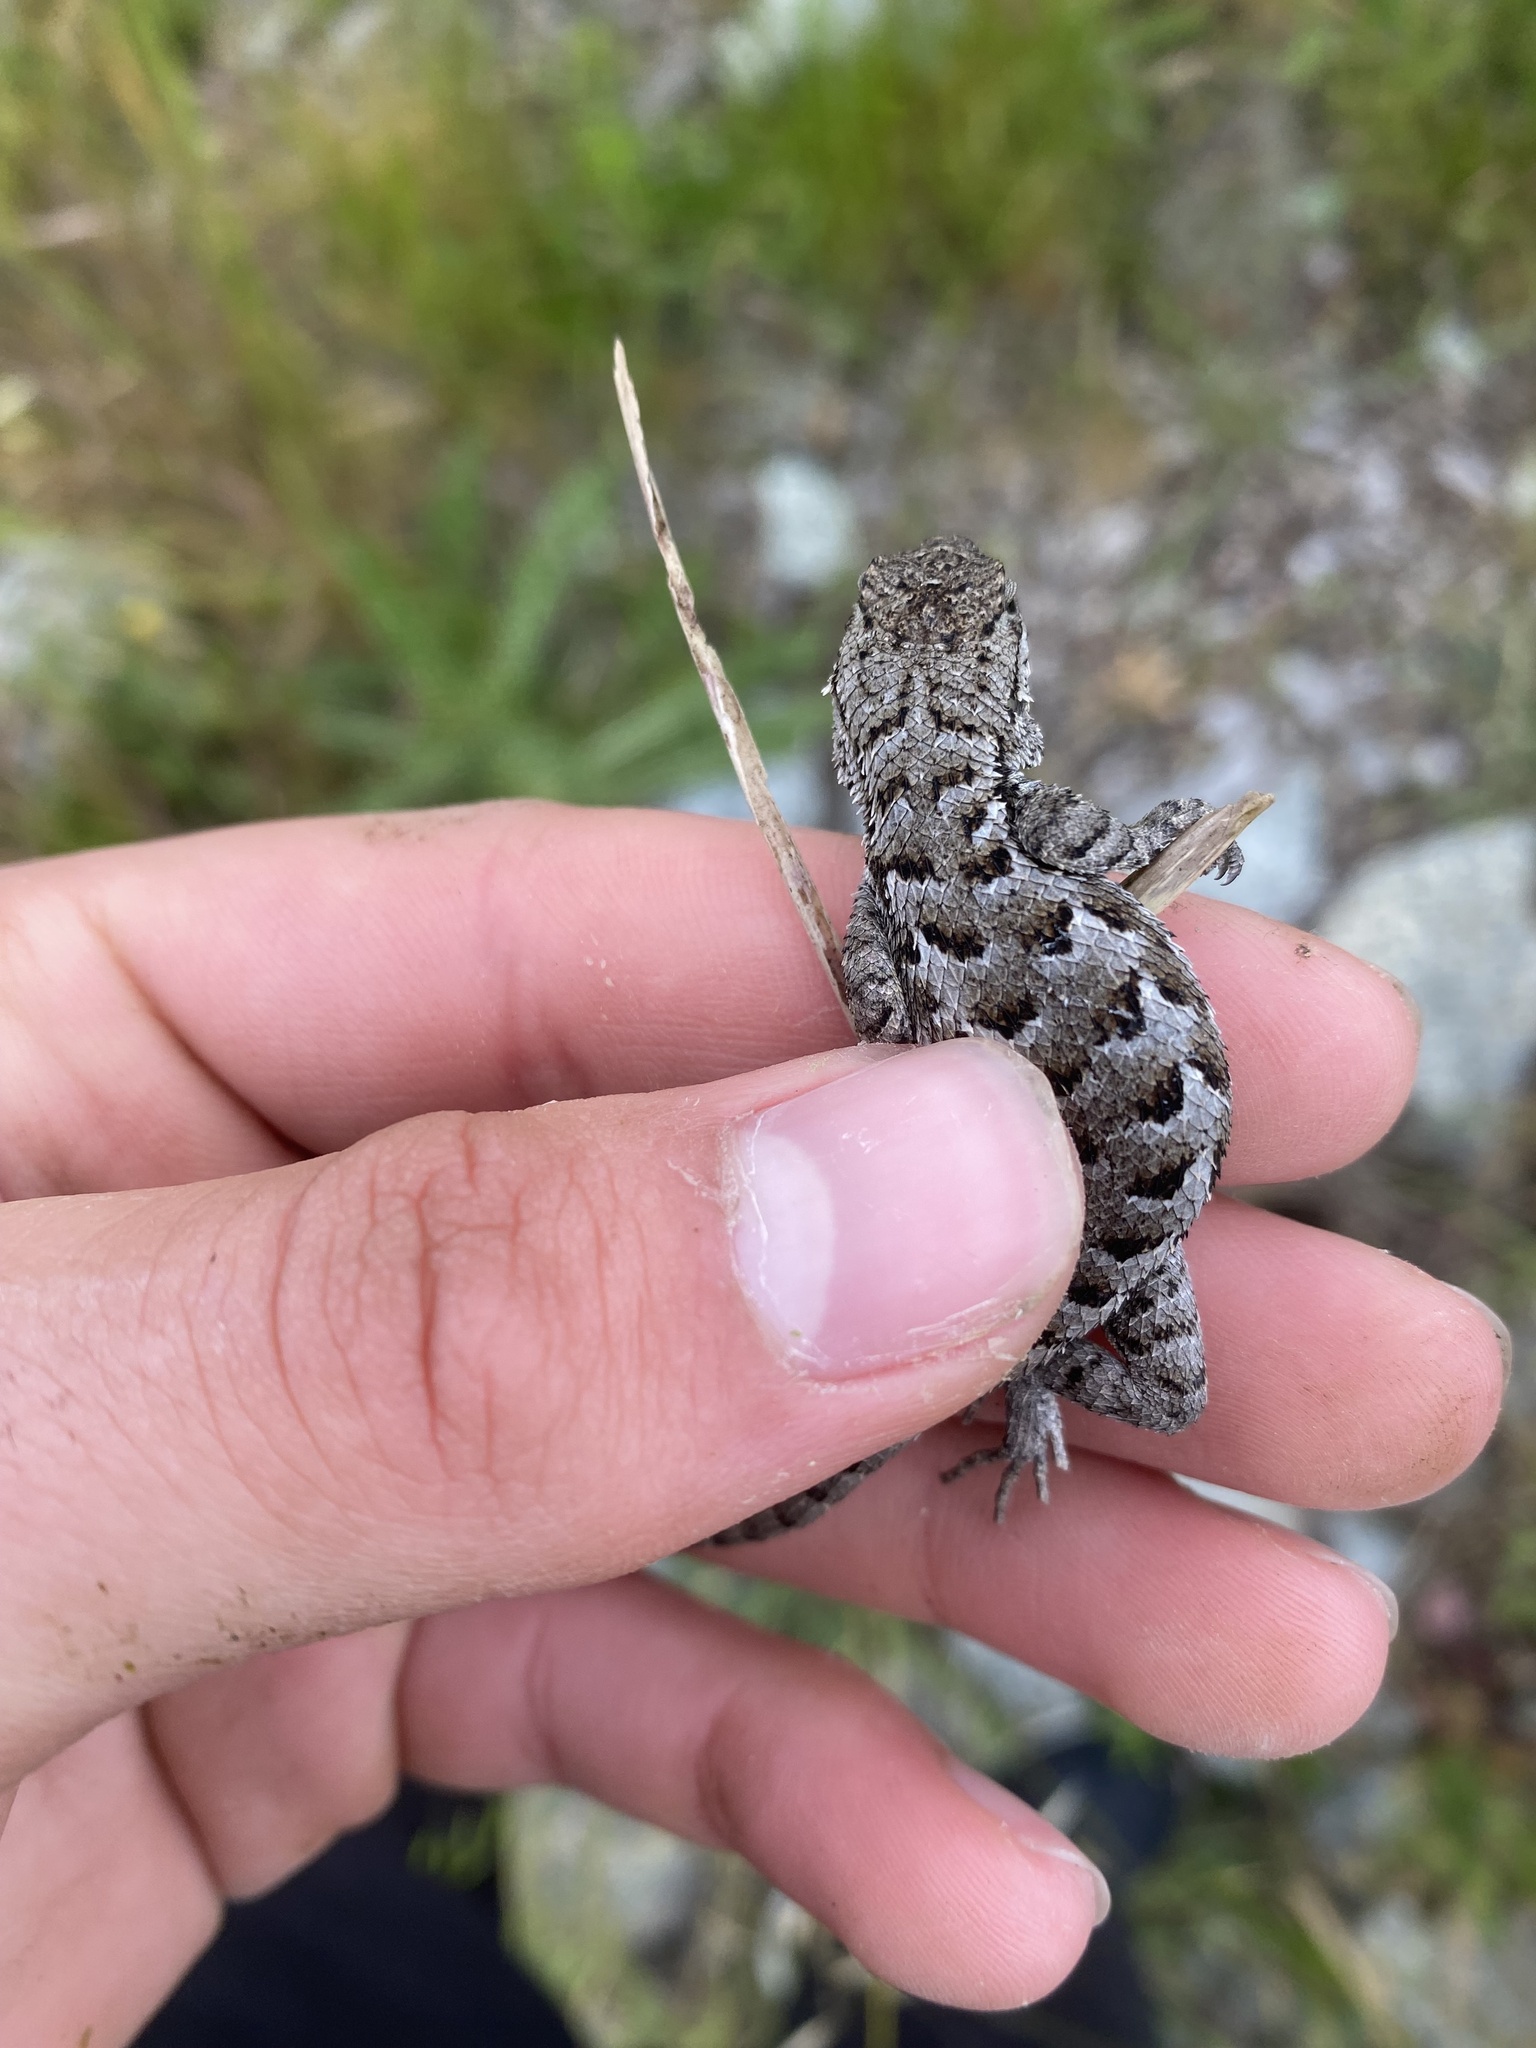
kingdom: Animalia
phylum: Chordata
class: Squamata
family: Phrynosomatidae
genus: Sceloporus
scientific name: Sceloporus occidentalis
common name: Western fence lizard
